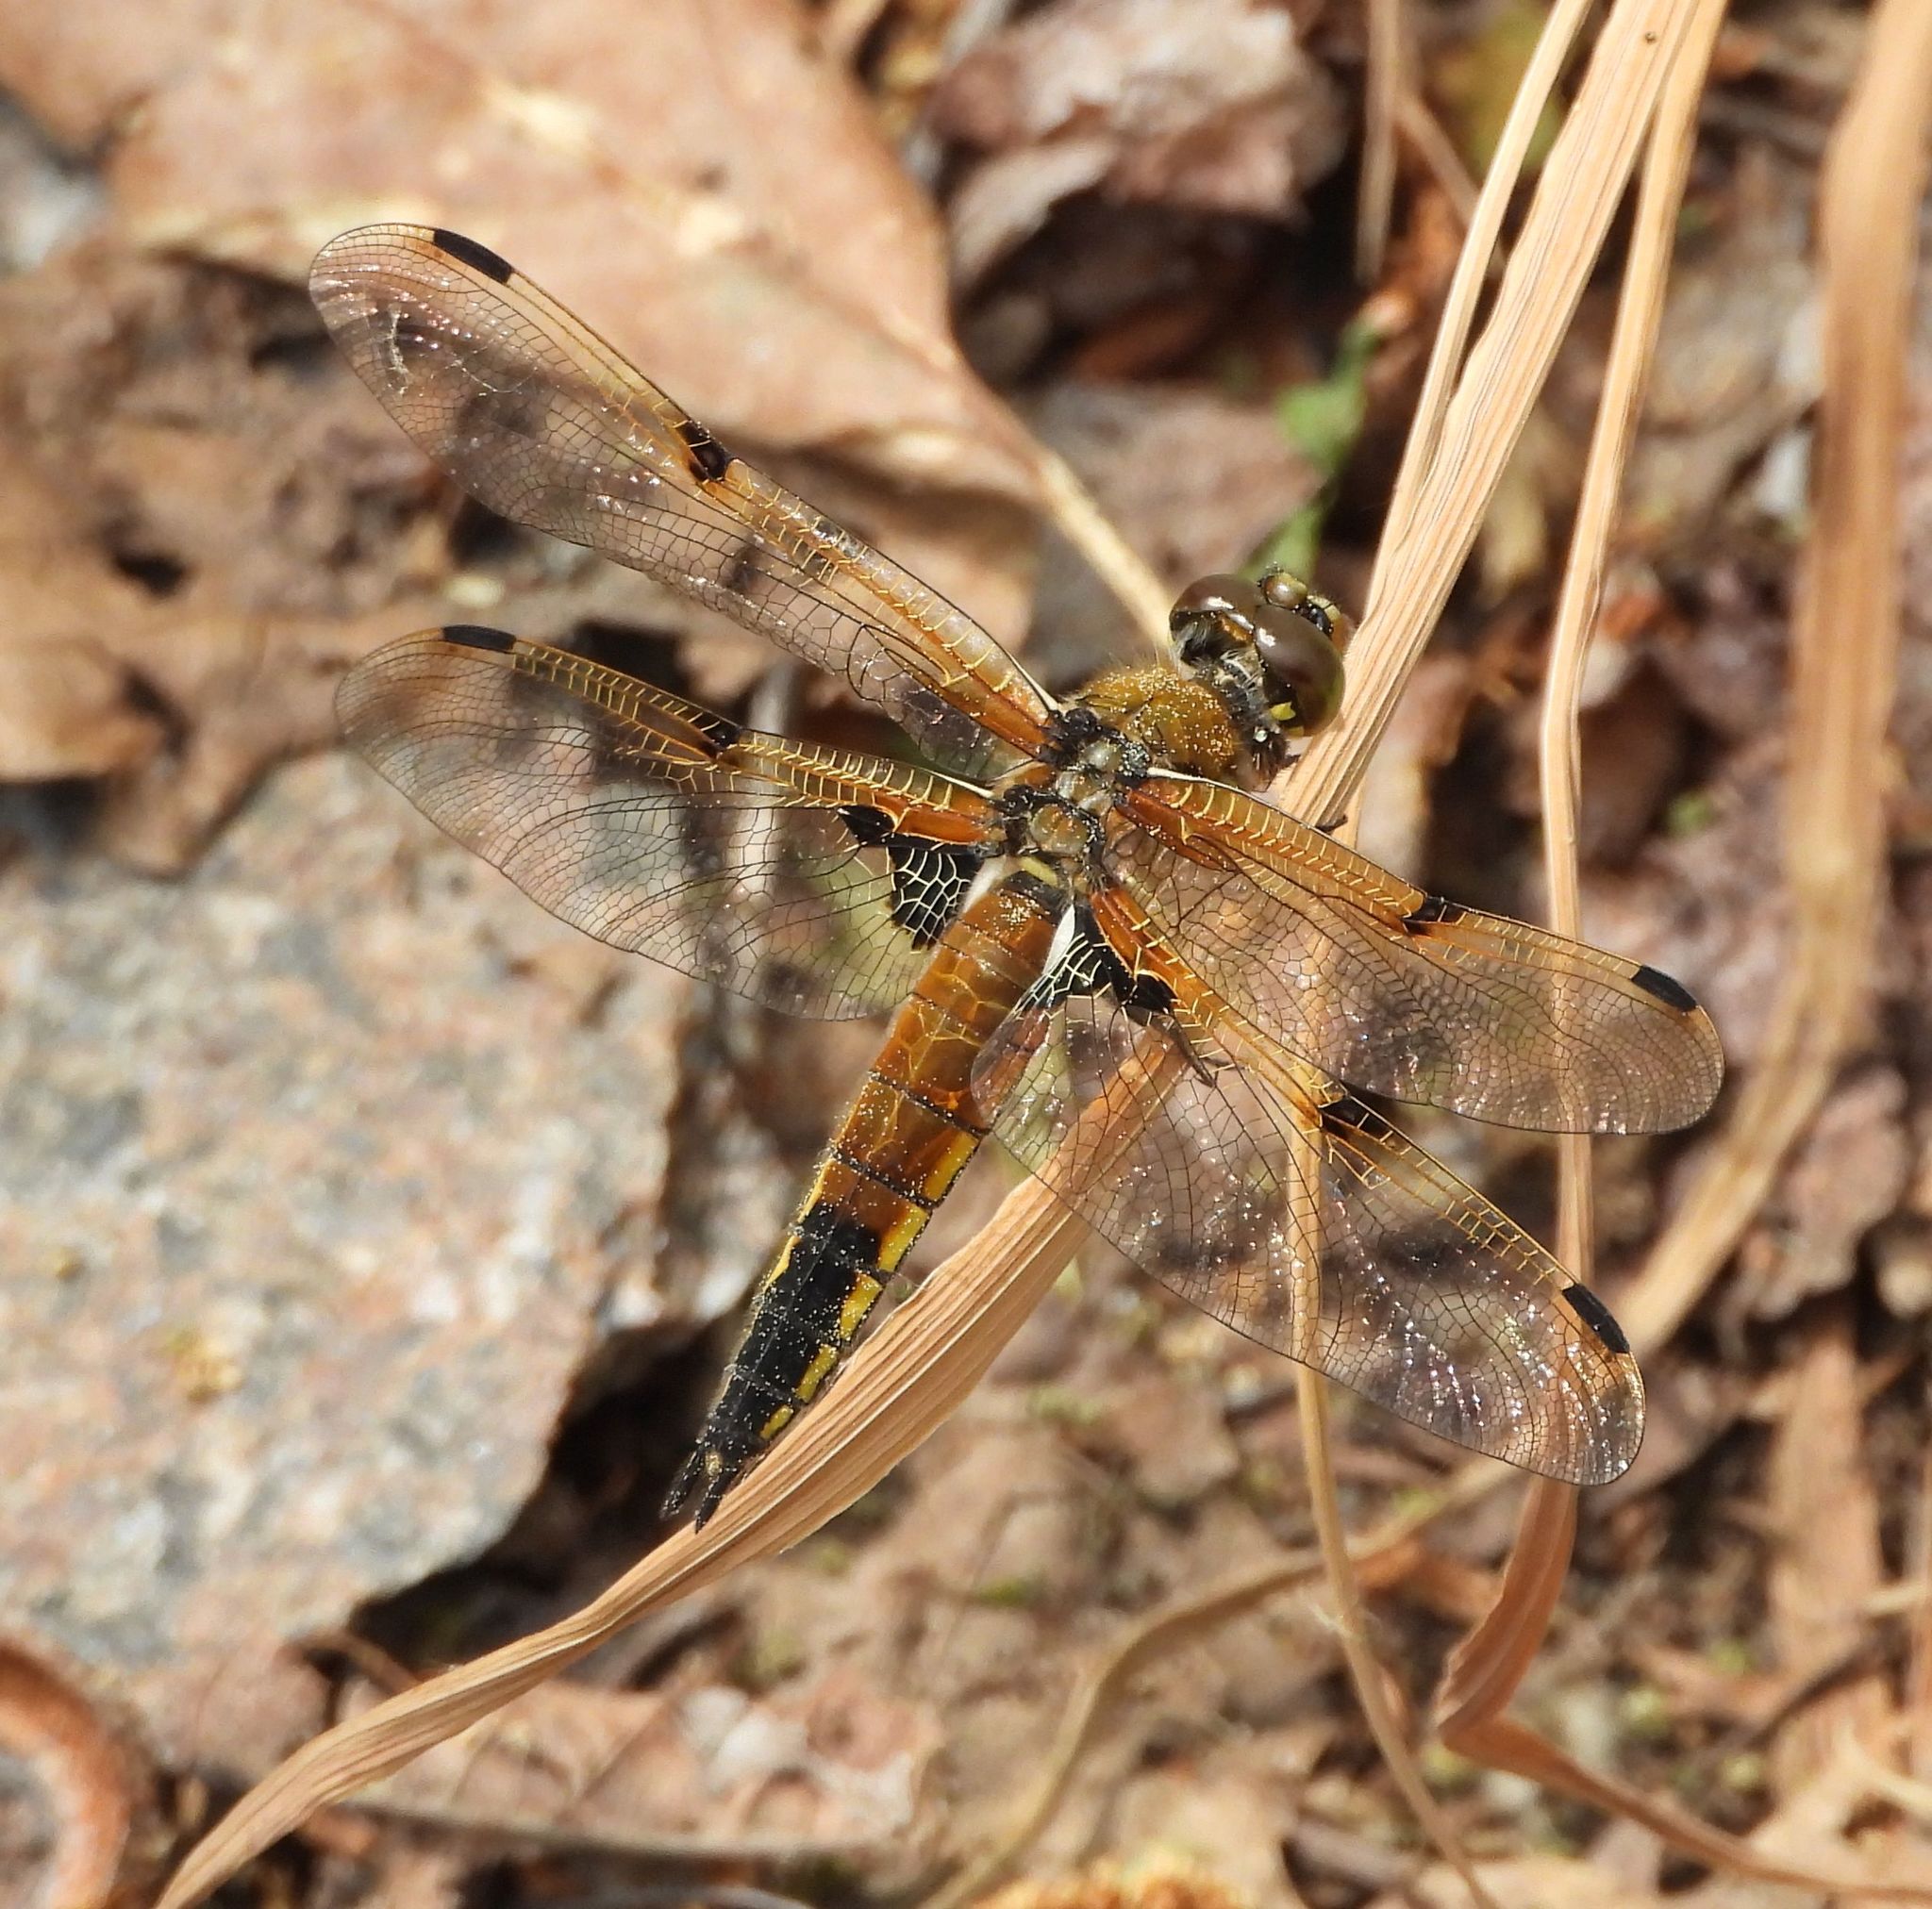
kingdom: Animalia
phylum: Arthropoda
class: Insecta
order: Odonata
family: Libellulidae
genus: Libellula
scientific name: Libellula quadrimaculata
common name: Four-spotted chaser
